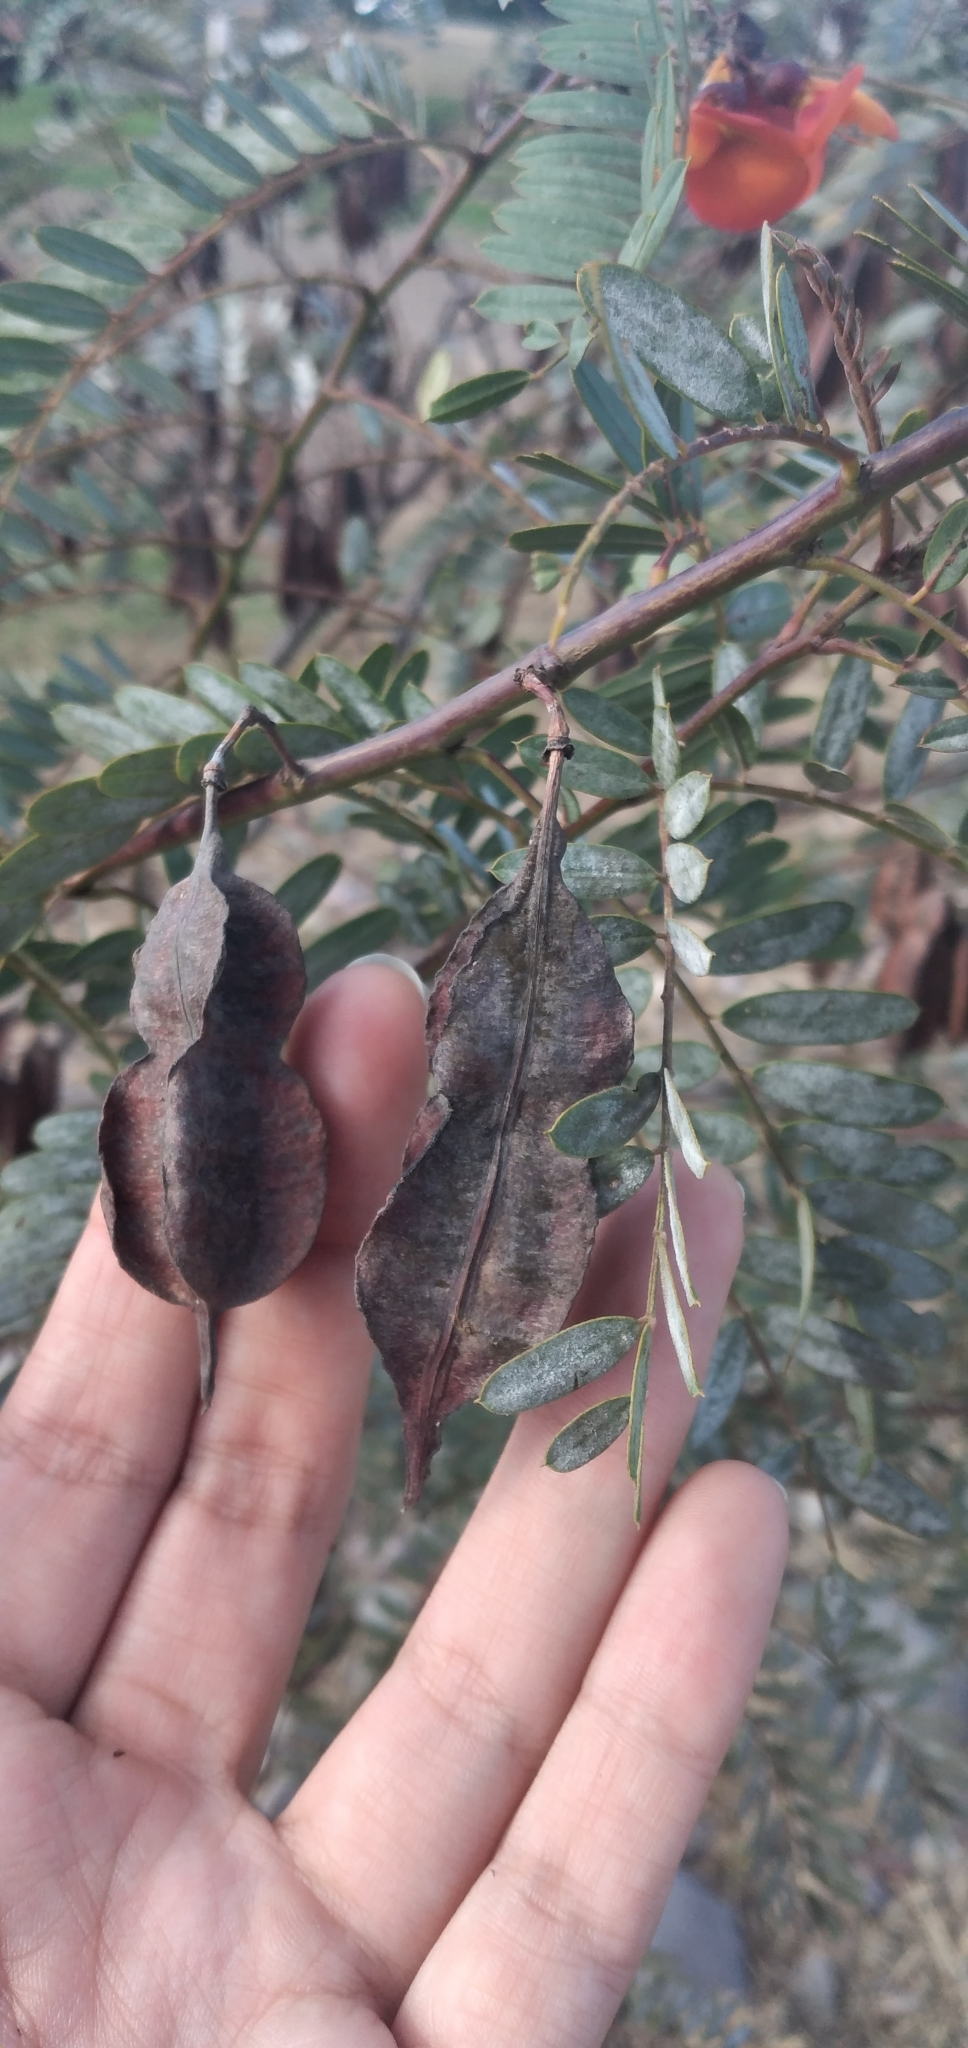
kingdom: Plantae
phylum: Tracheophyta
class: Magnoliopsida
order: Fabales
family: Fabaceae
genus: Sesbania
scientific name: Sesbania punicea
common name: Rattlebox
